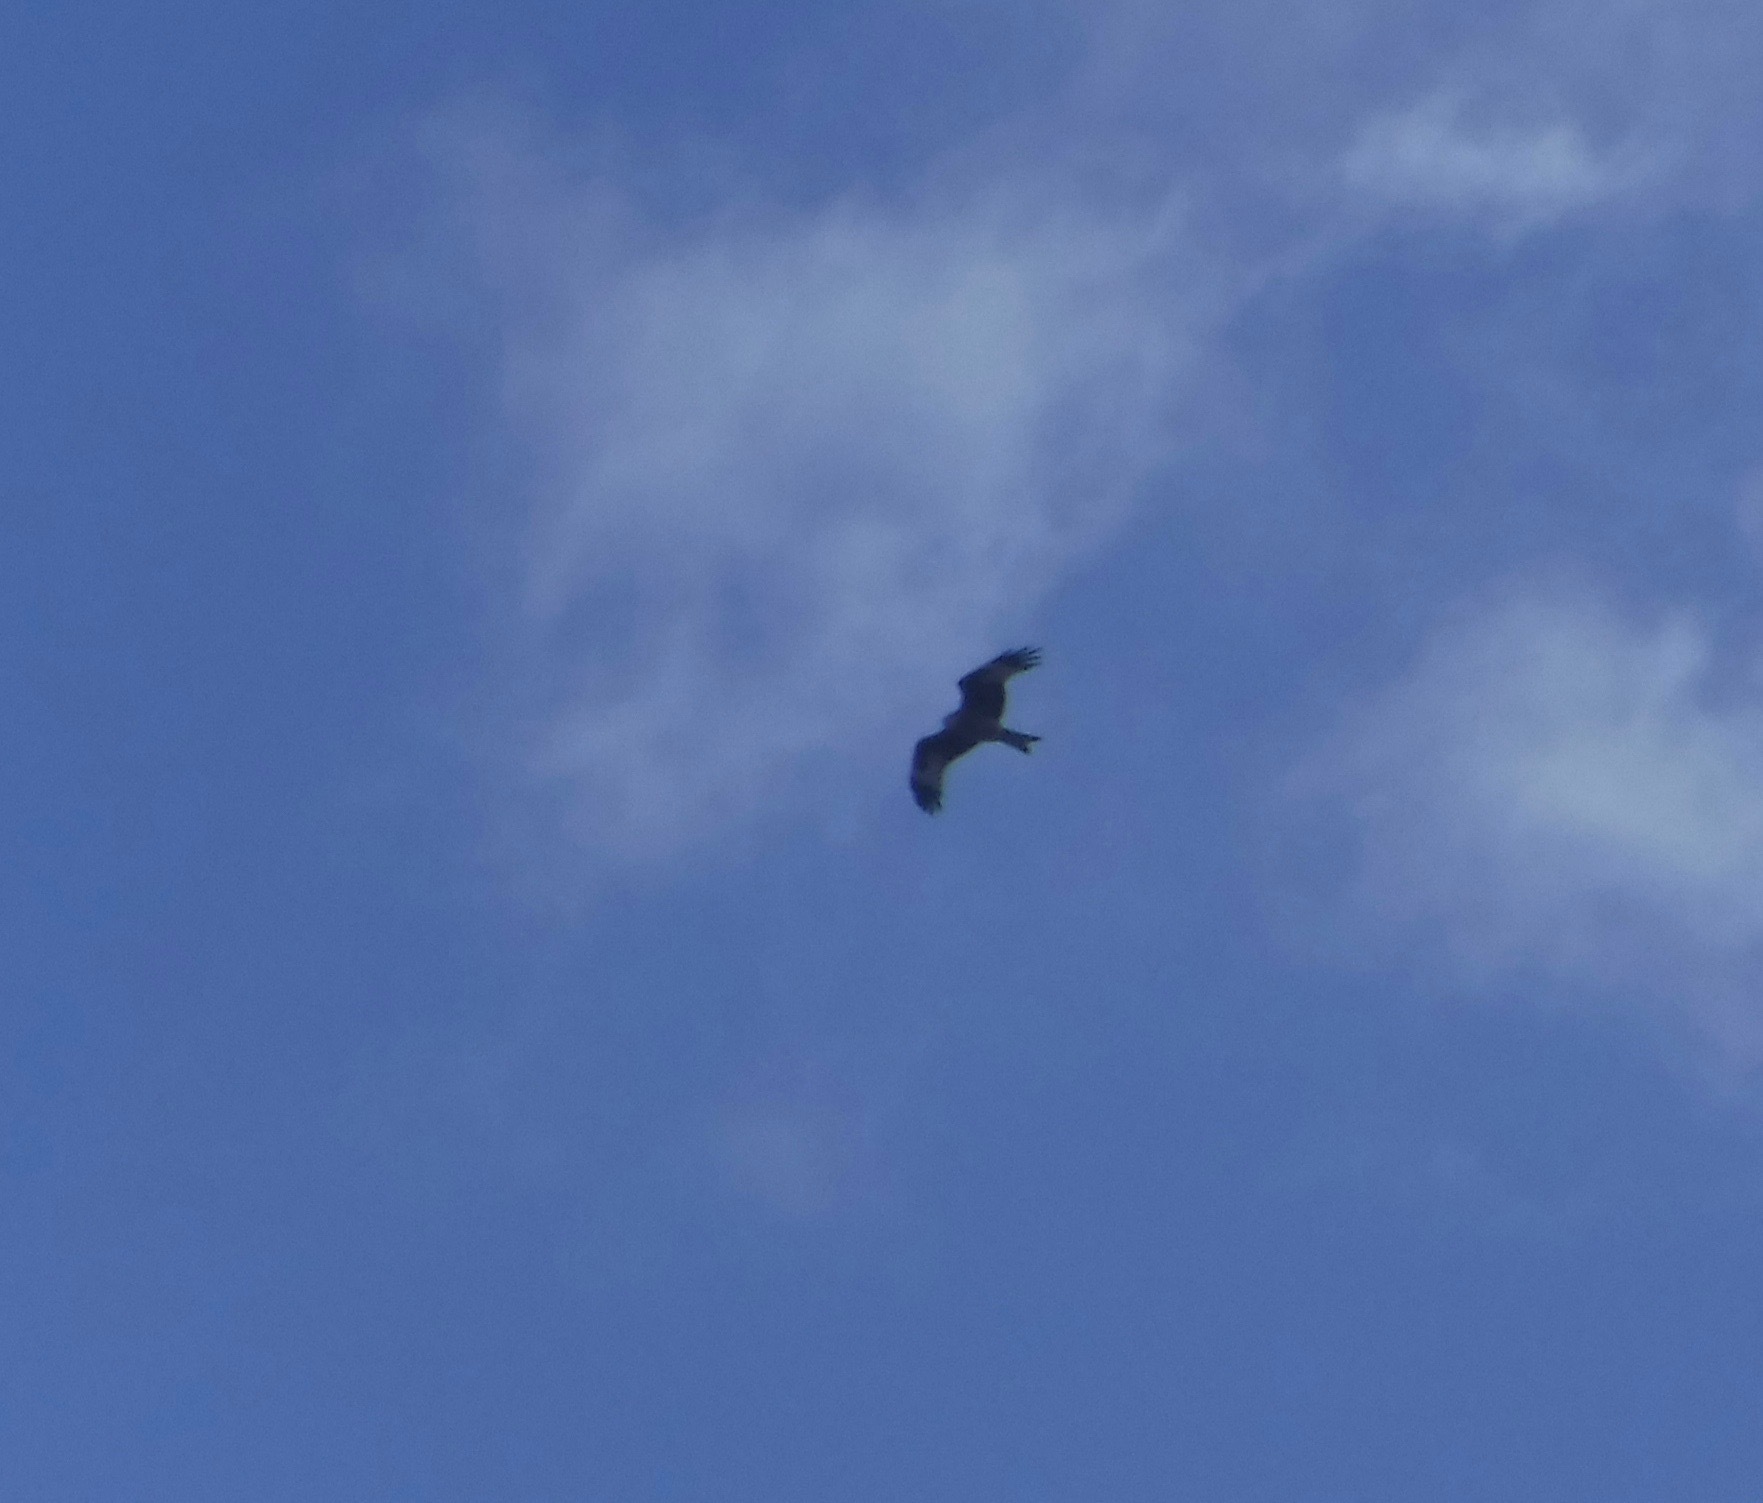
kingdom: Animalia
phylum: Chordata
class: Aves
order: Accipitriformes
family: Accipitridae
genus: Milvus
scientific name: Milvus milvus
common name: Red kite
